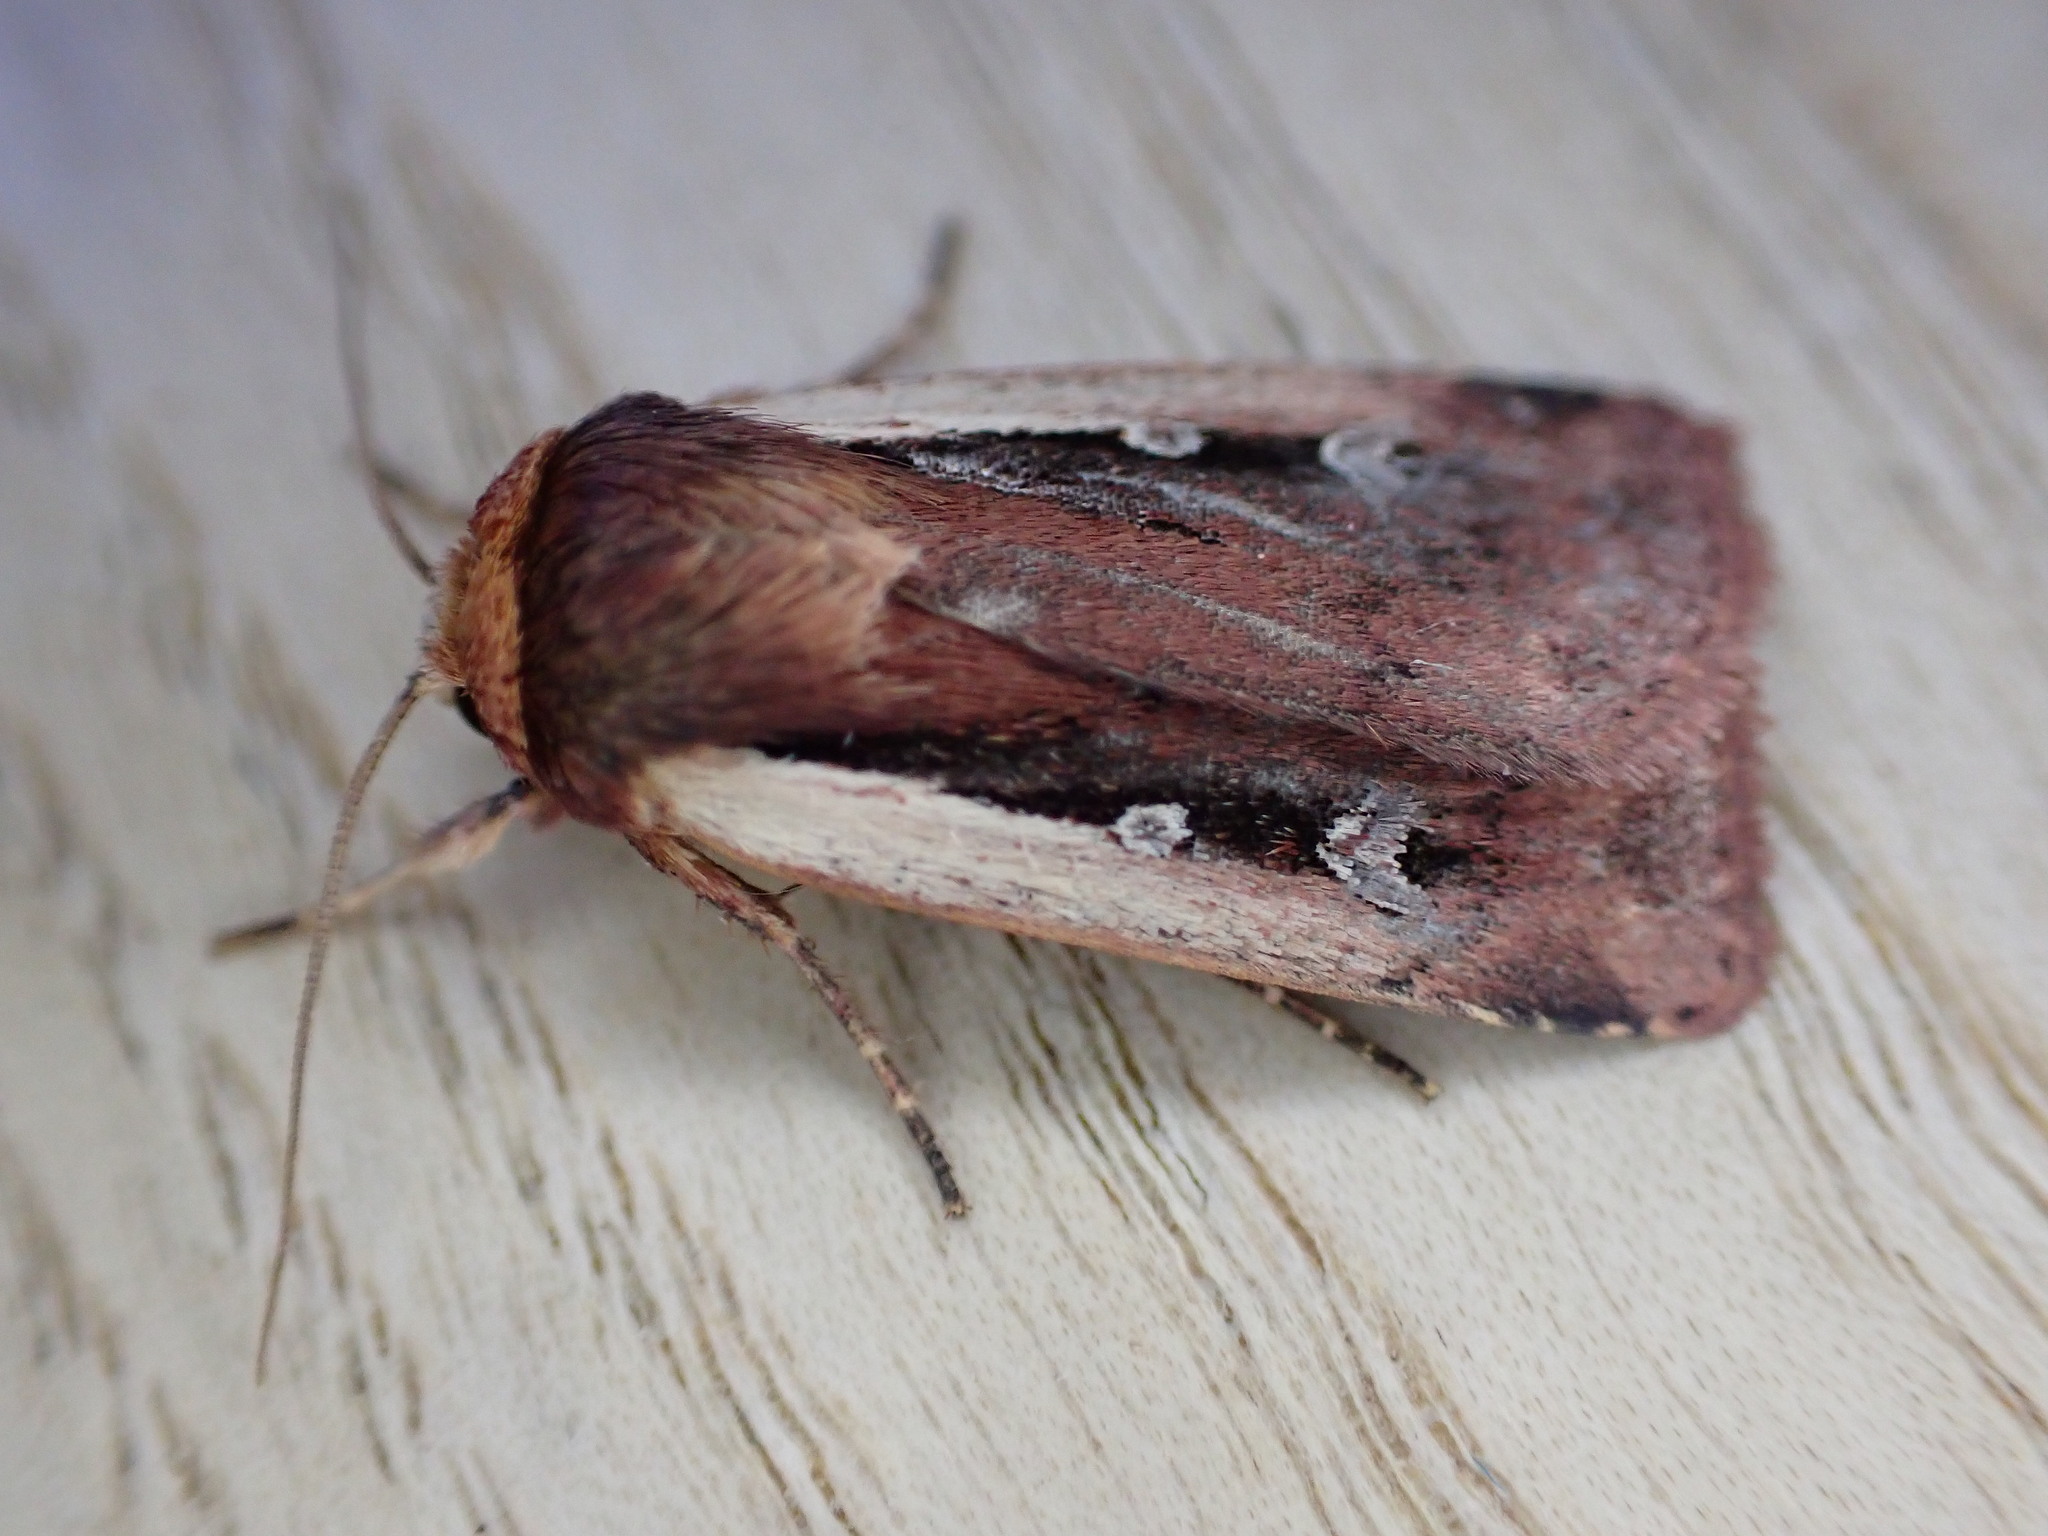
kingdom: Animalia
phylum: Arthropoda
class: Insecta
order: Lepidoptera
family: Noctuidae
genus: Ochropleura
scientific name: Ochropleura plecta
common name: Flame shoulder
